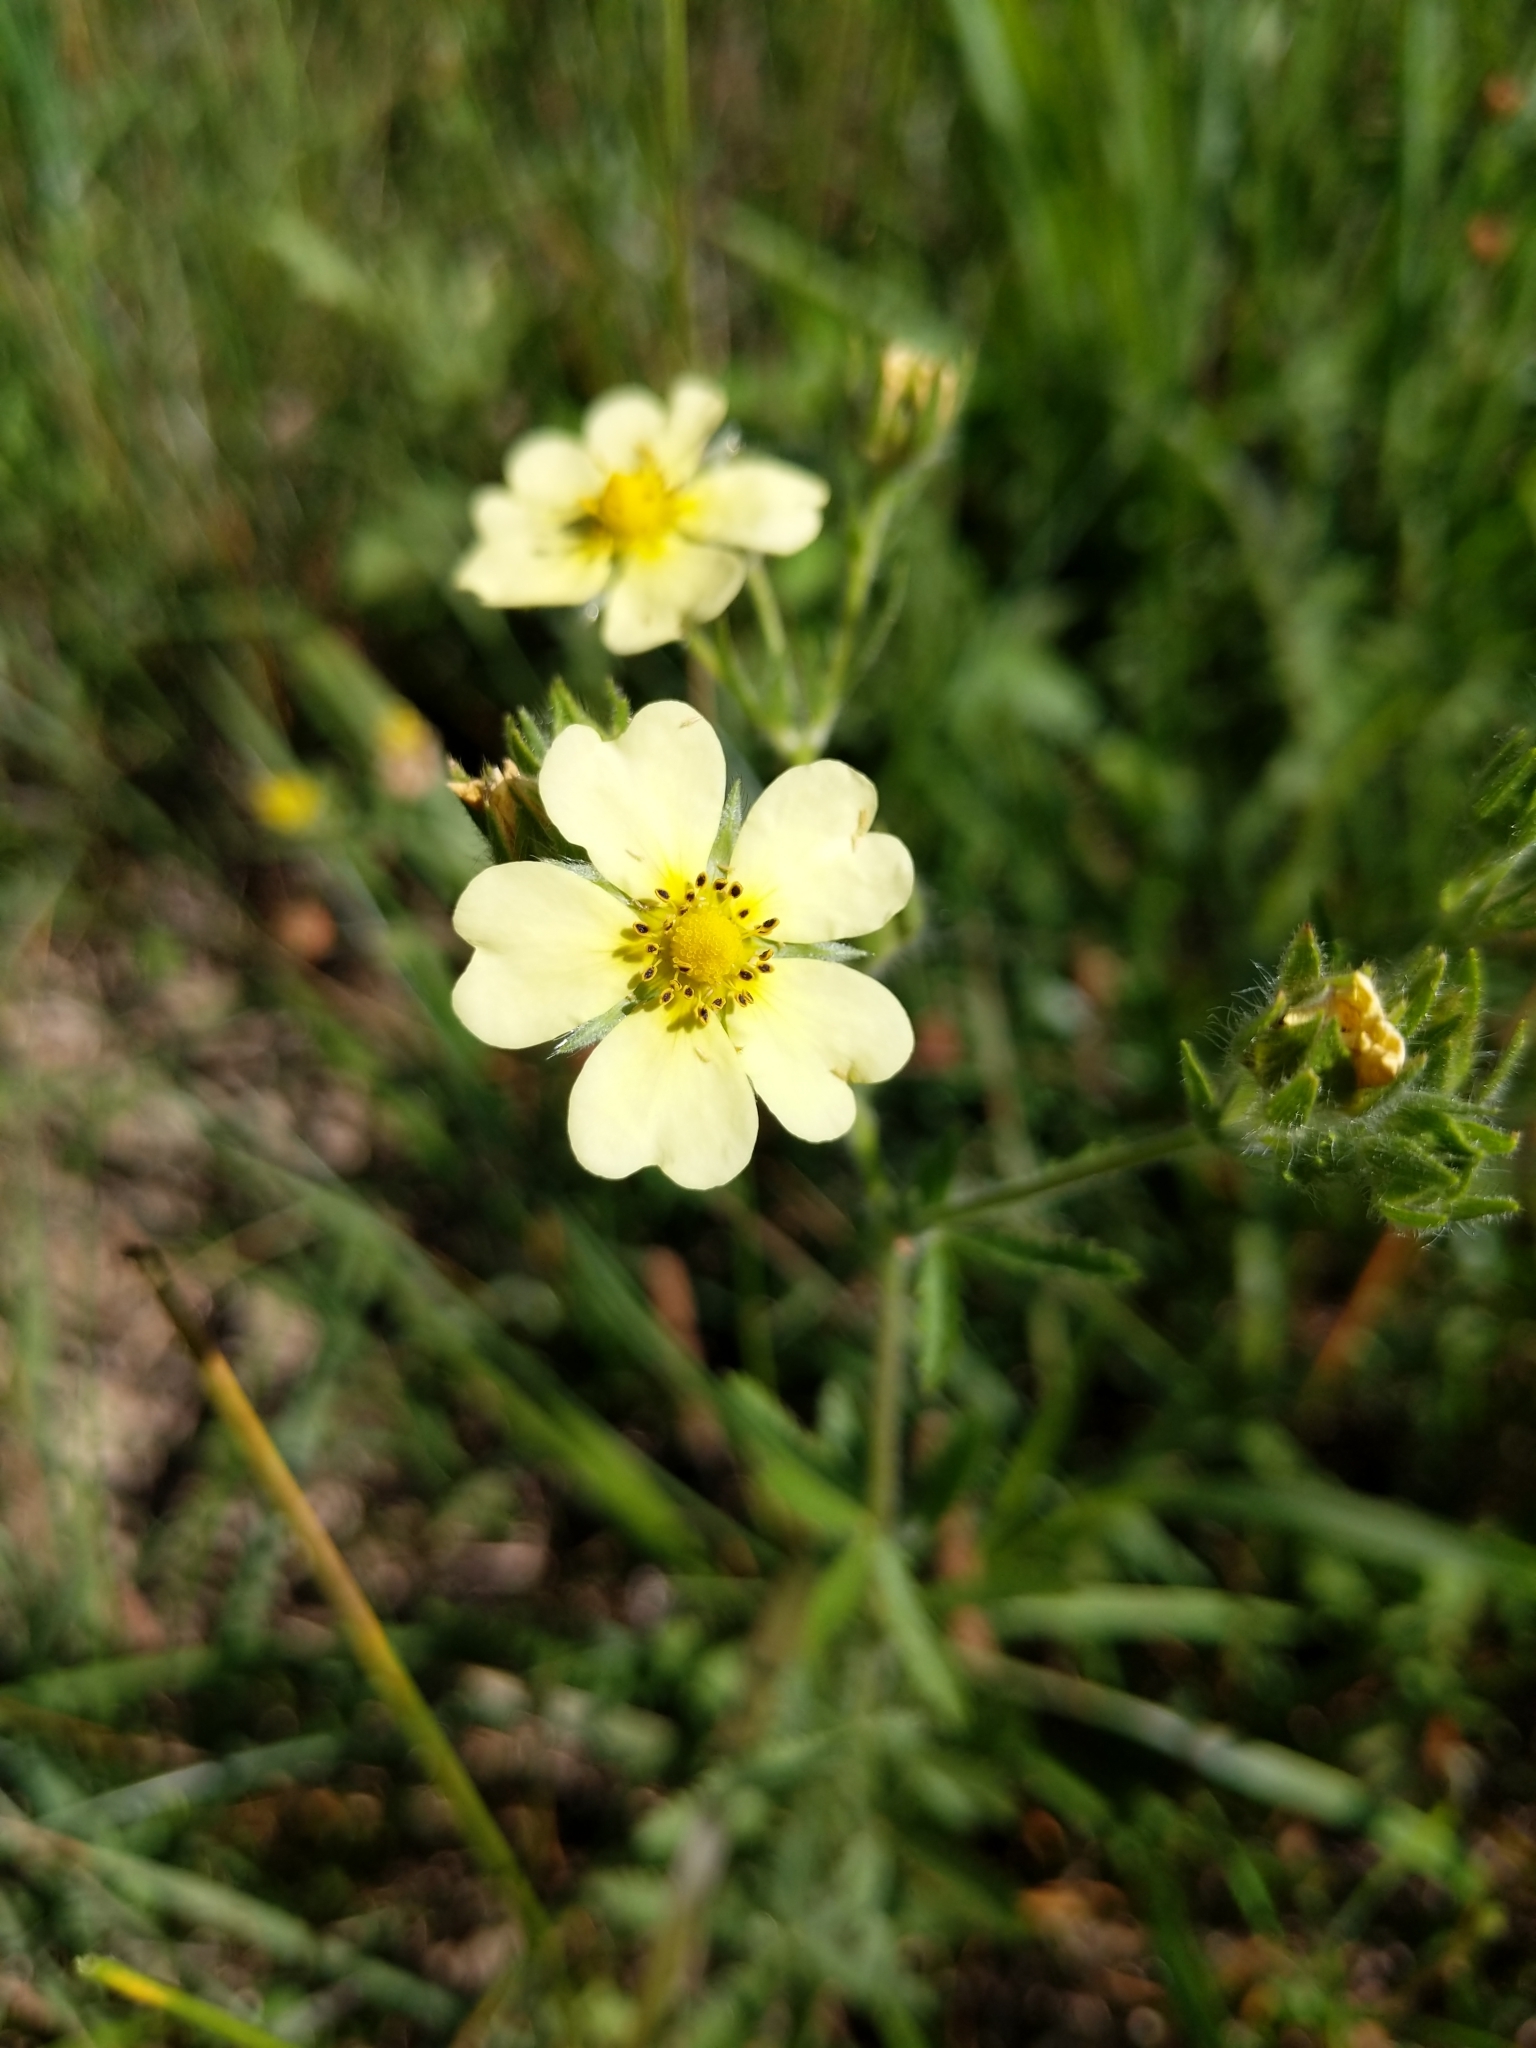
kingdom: Plantae
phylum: Tracheophyta
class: Magnoliopsida
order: Rosales
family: Rosaceae
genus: Potentilla
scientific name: Potentilla recta
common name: Sulphur cinquefoil
